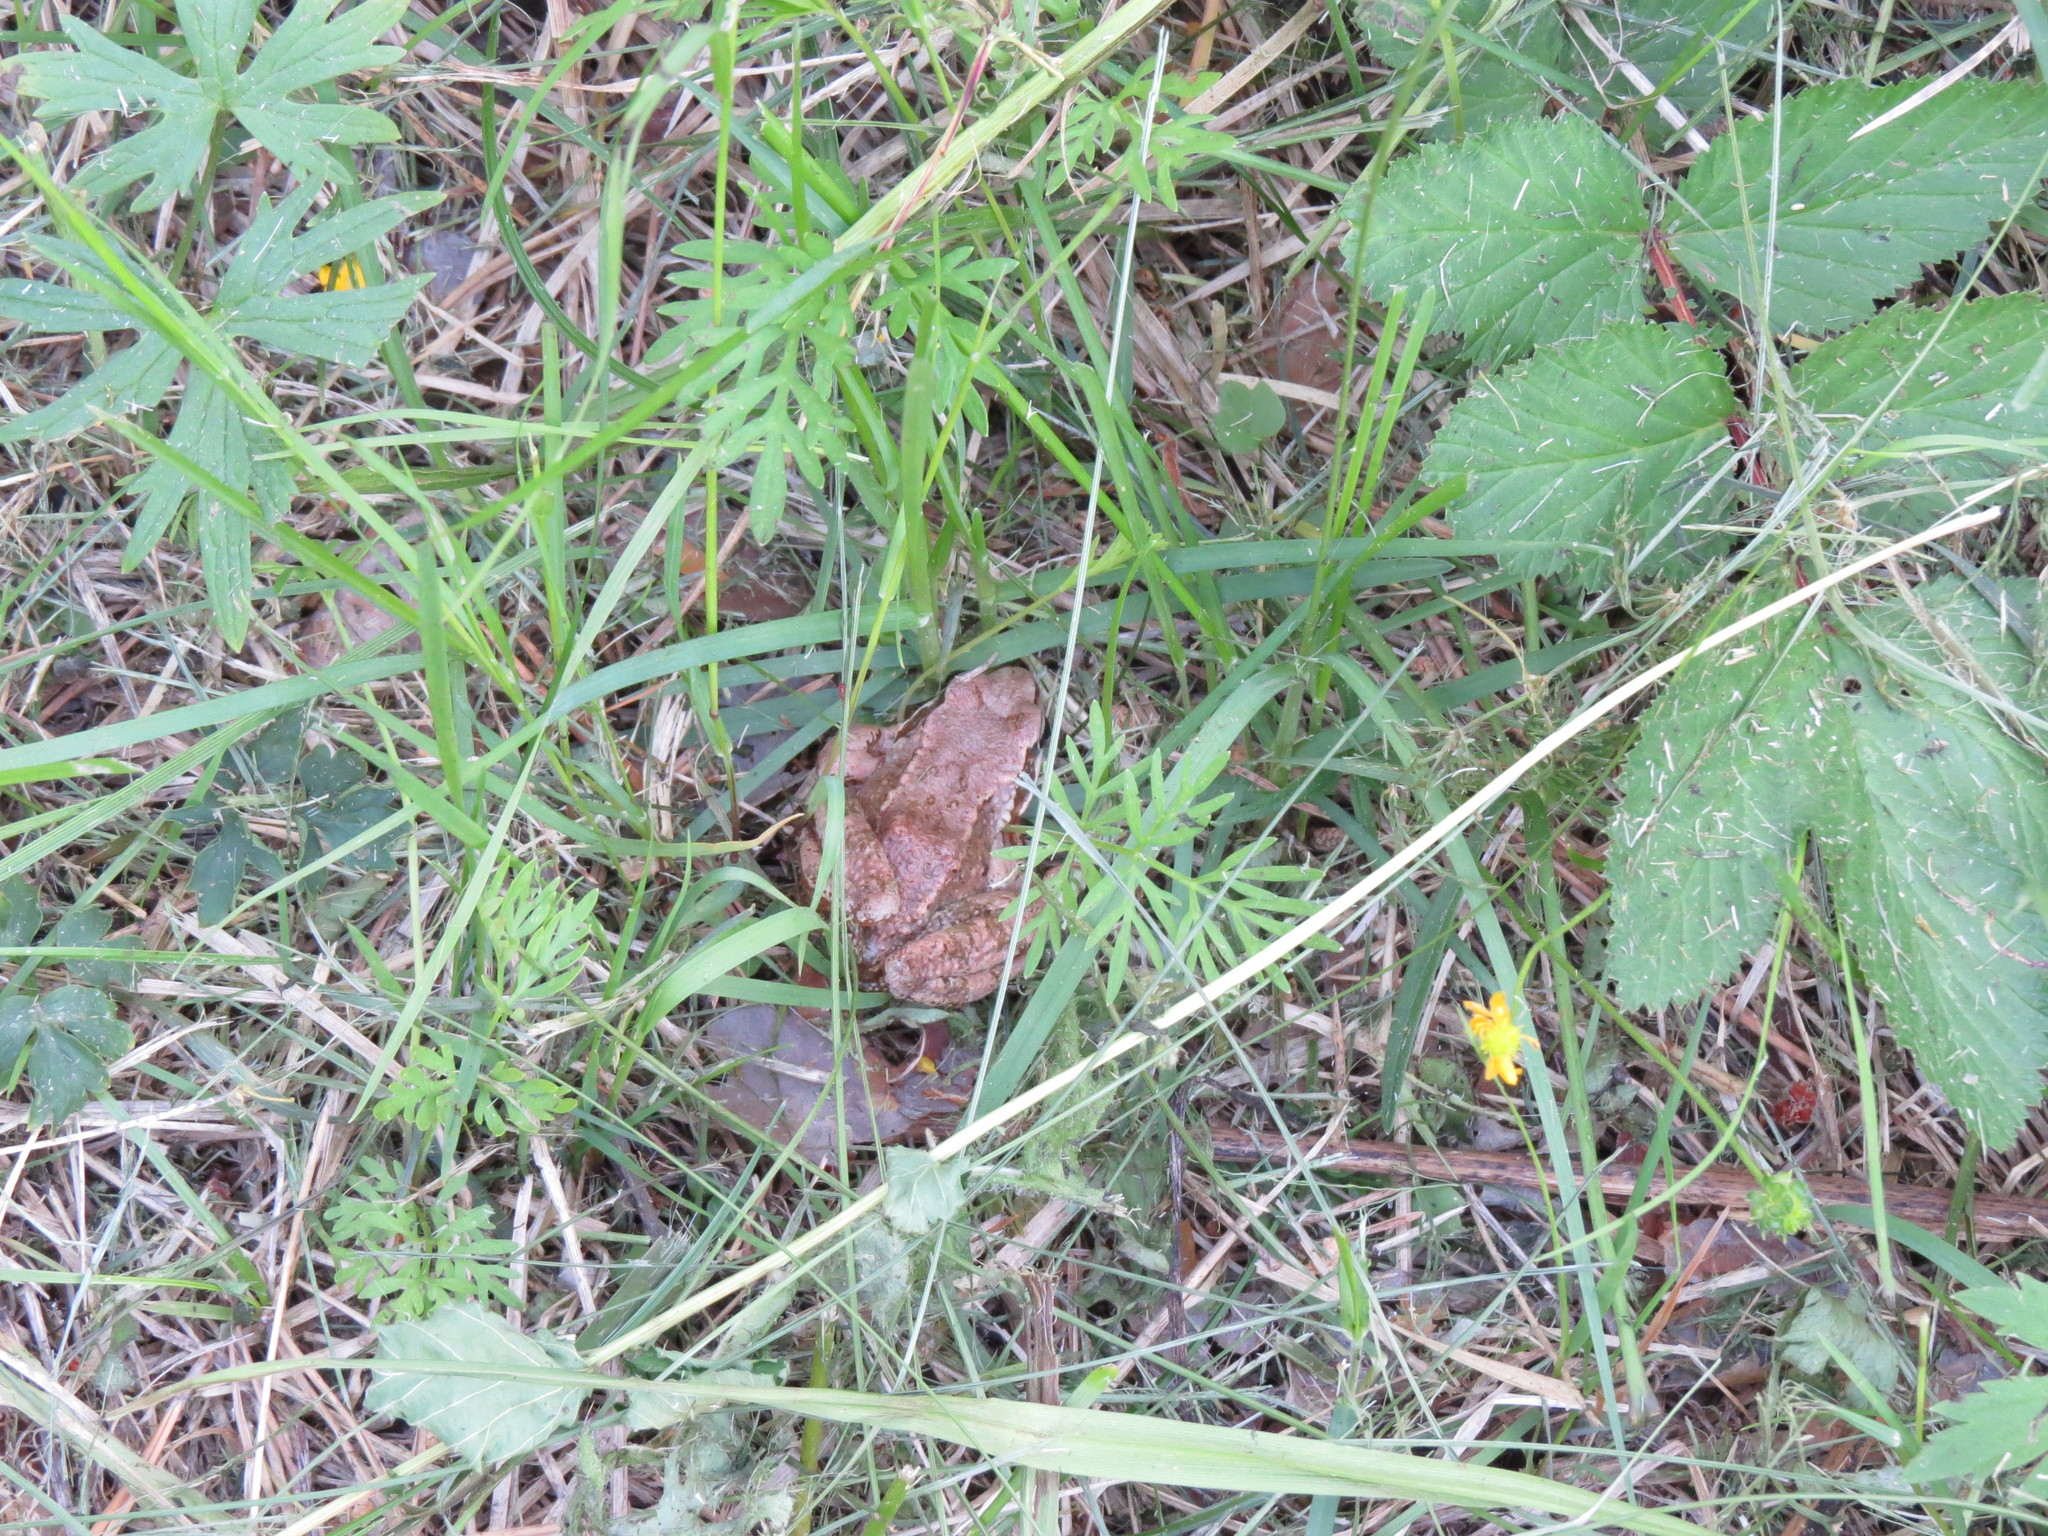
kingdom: Animalia
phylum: Chordata
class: Amphibia
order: Anura
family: Ranidae
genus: Rana
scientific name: Rana arvalis
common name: Moor frog
